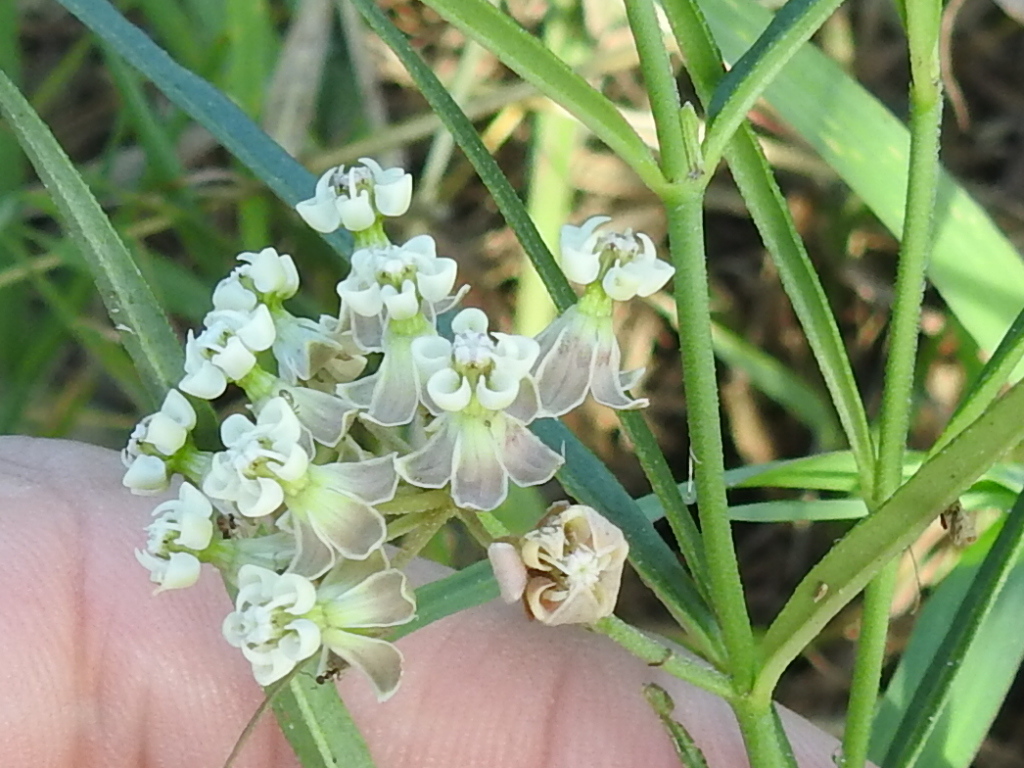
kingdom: Plantae
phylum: Tracheophyta
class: Magnoliopsida
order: Gentianales
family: Apocynaceae
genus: Asclepias
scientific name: Asclepias linearis
